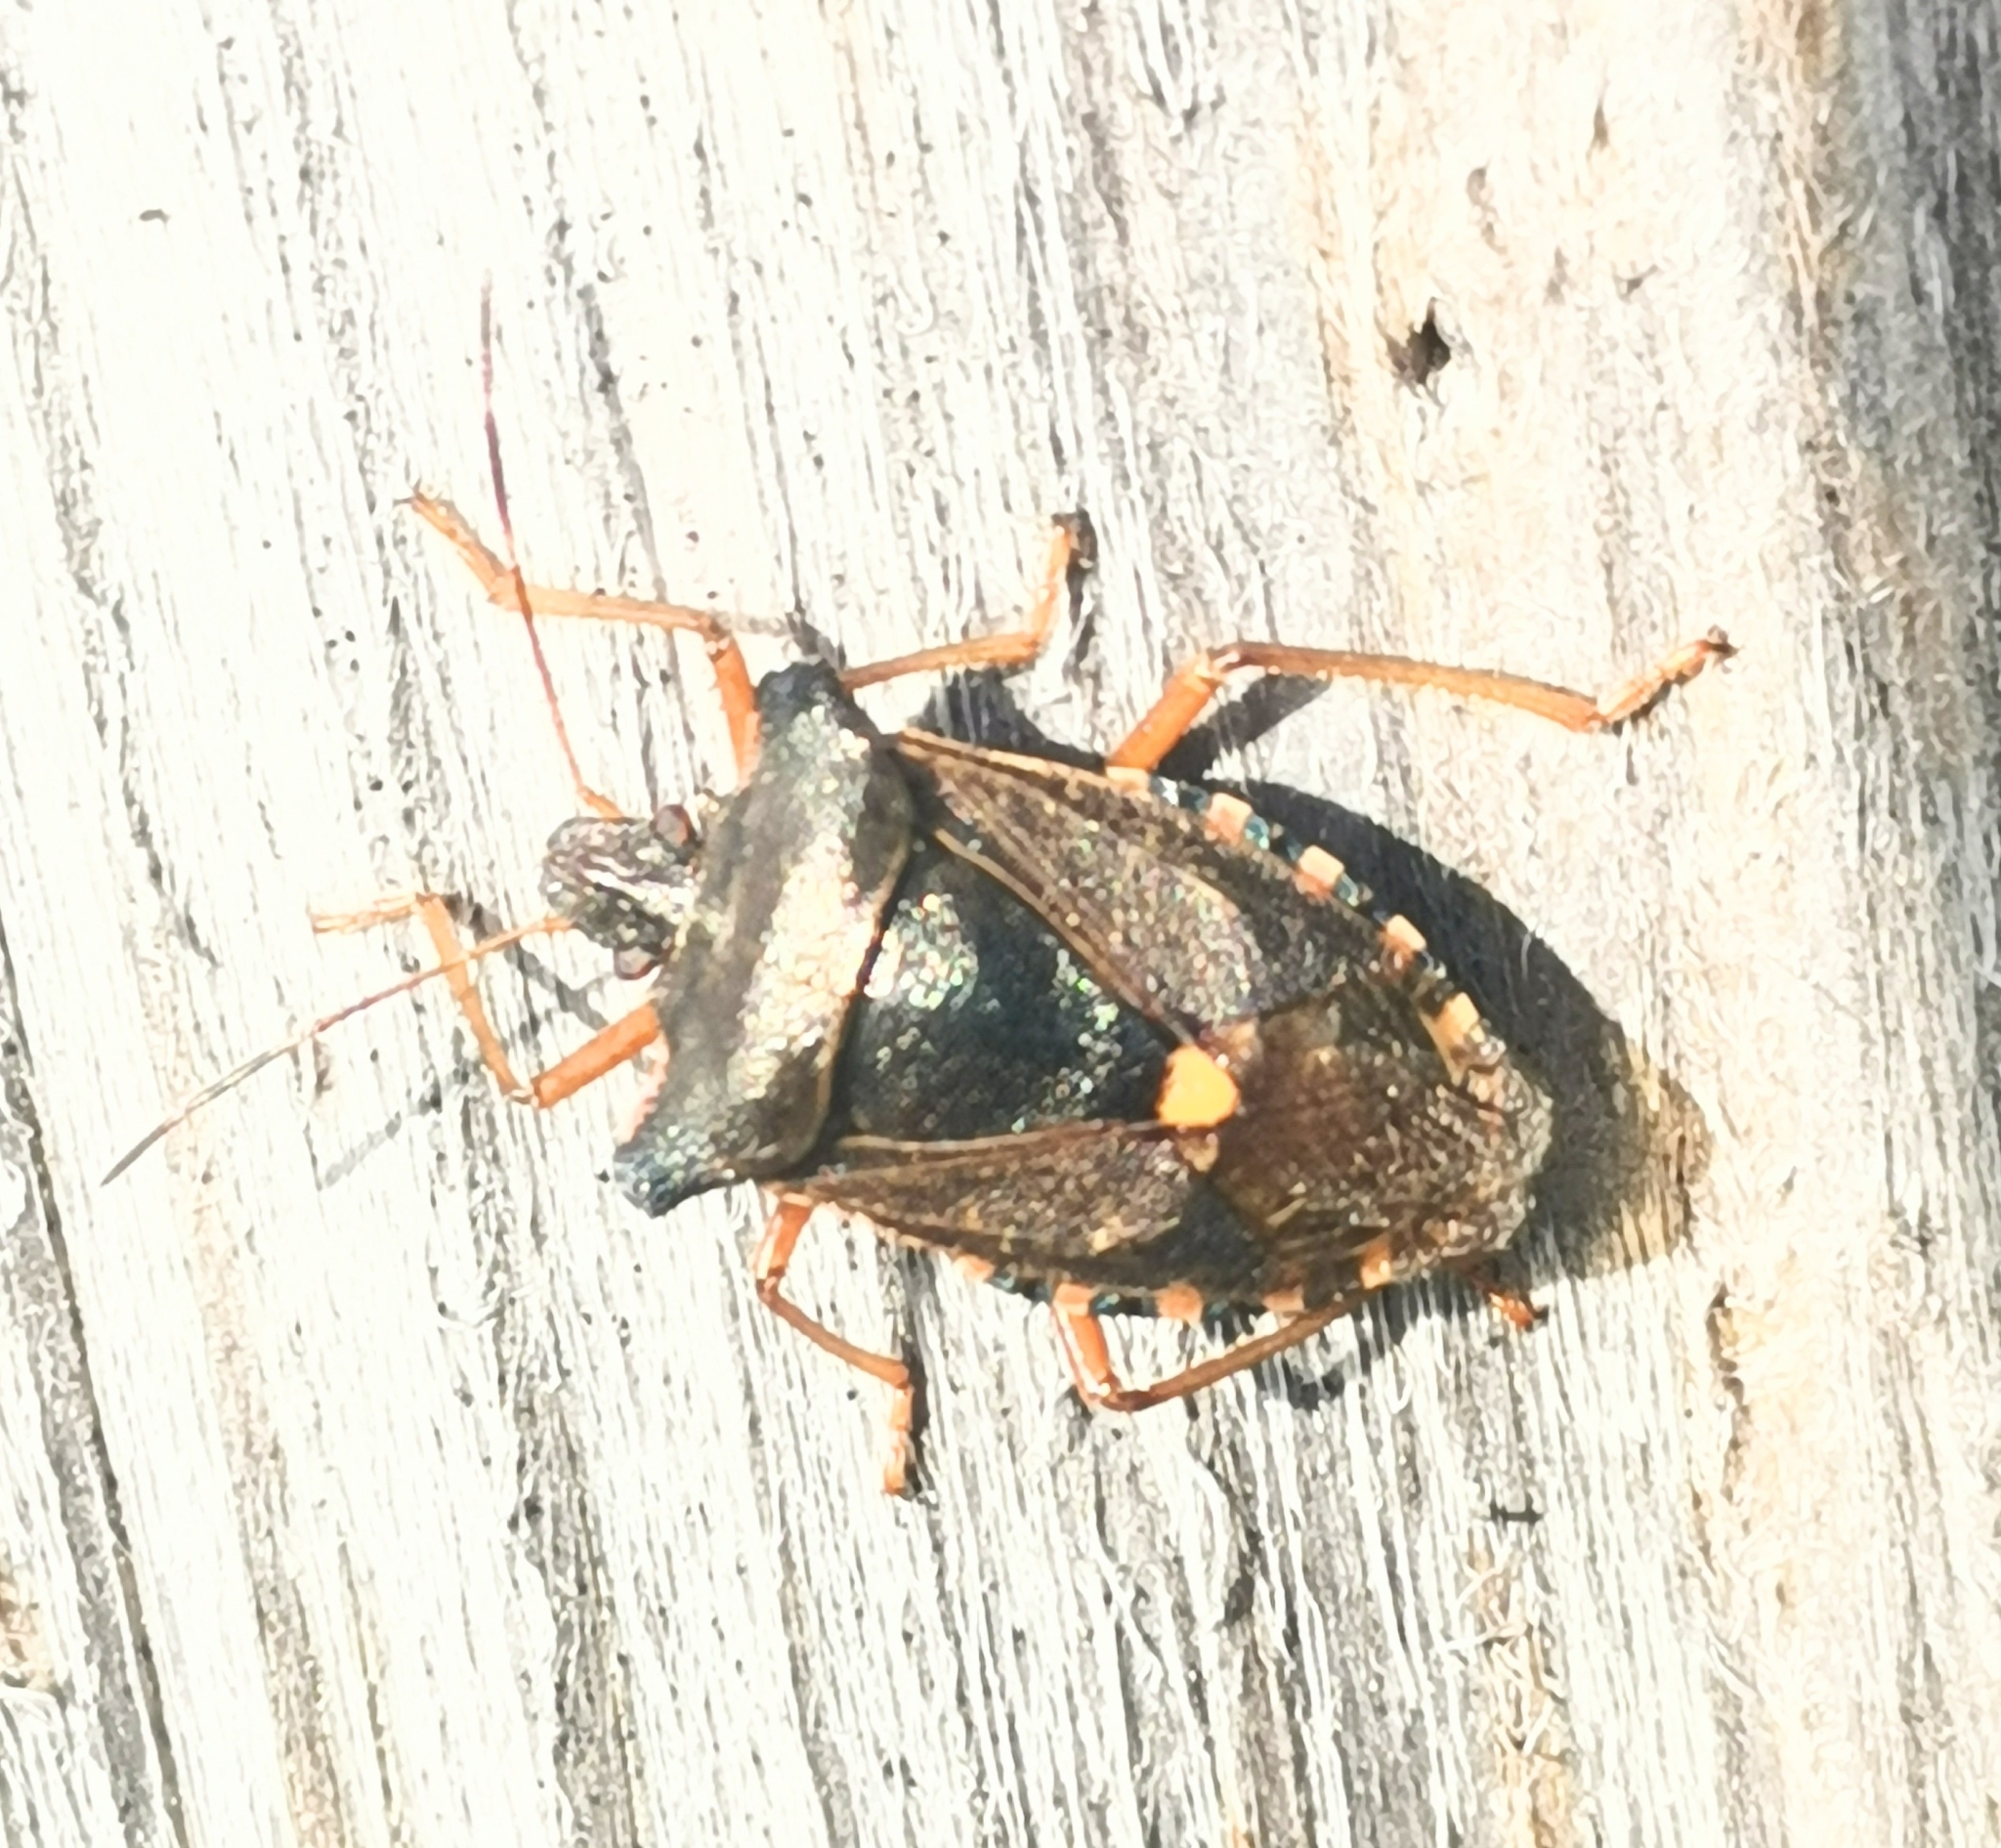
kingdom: Animalia
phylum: Arthropoda
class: Insecta
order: Hemiptera
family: Pentatomidae
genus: Pentatoma
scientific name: Pentatoma rufipes
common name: Forest bug
